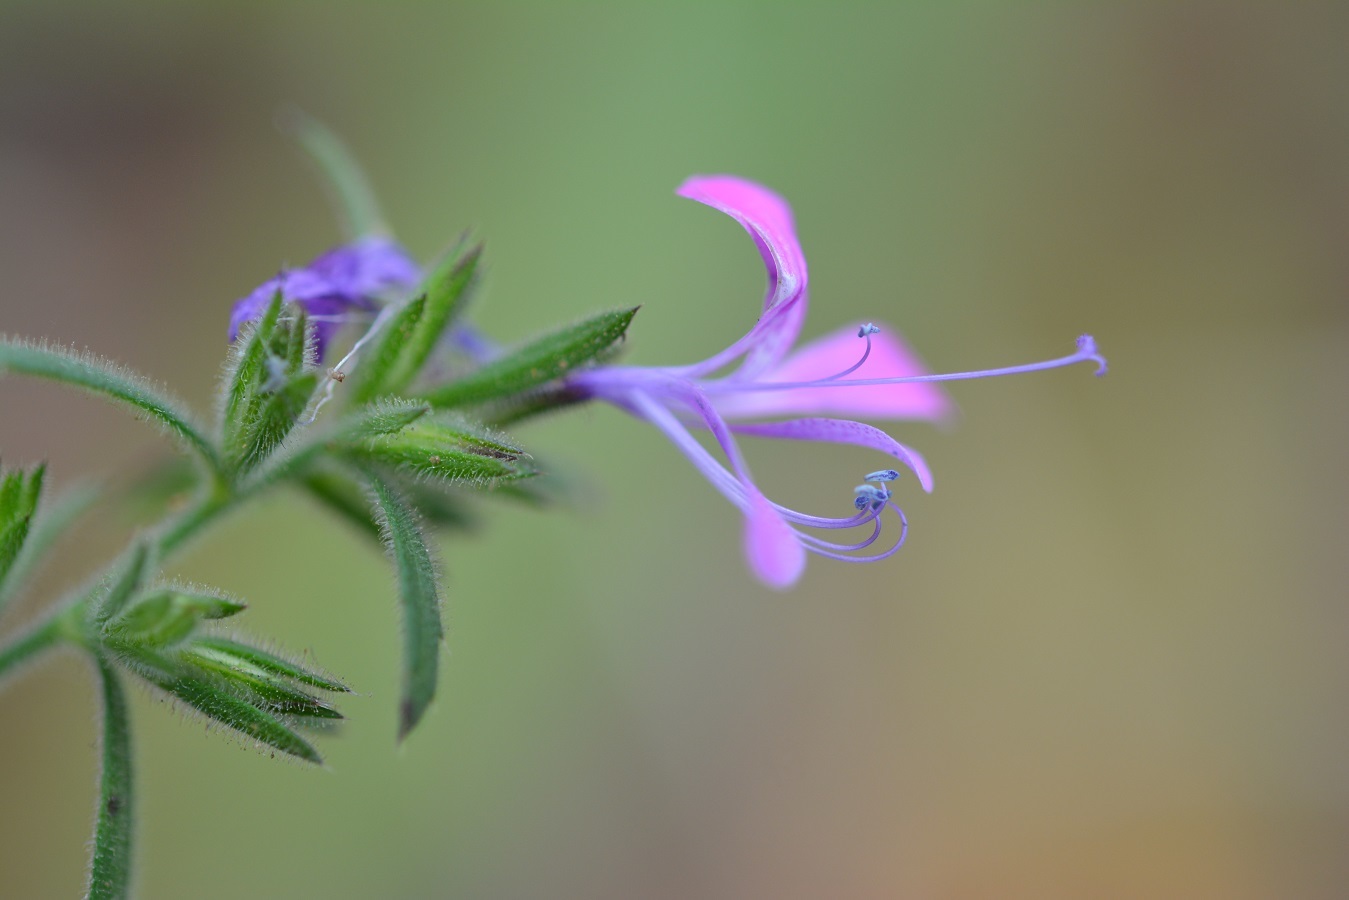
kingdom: Plantae
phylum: Tracheophyta
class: Magnoliopsida
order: Ericales
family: Polemoniaceae
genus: Loeselia
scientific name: Loeselia glandulosa
